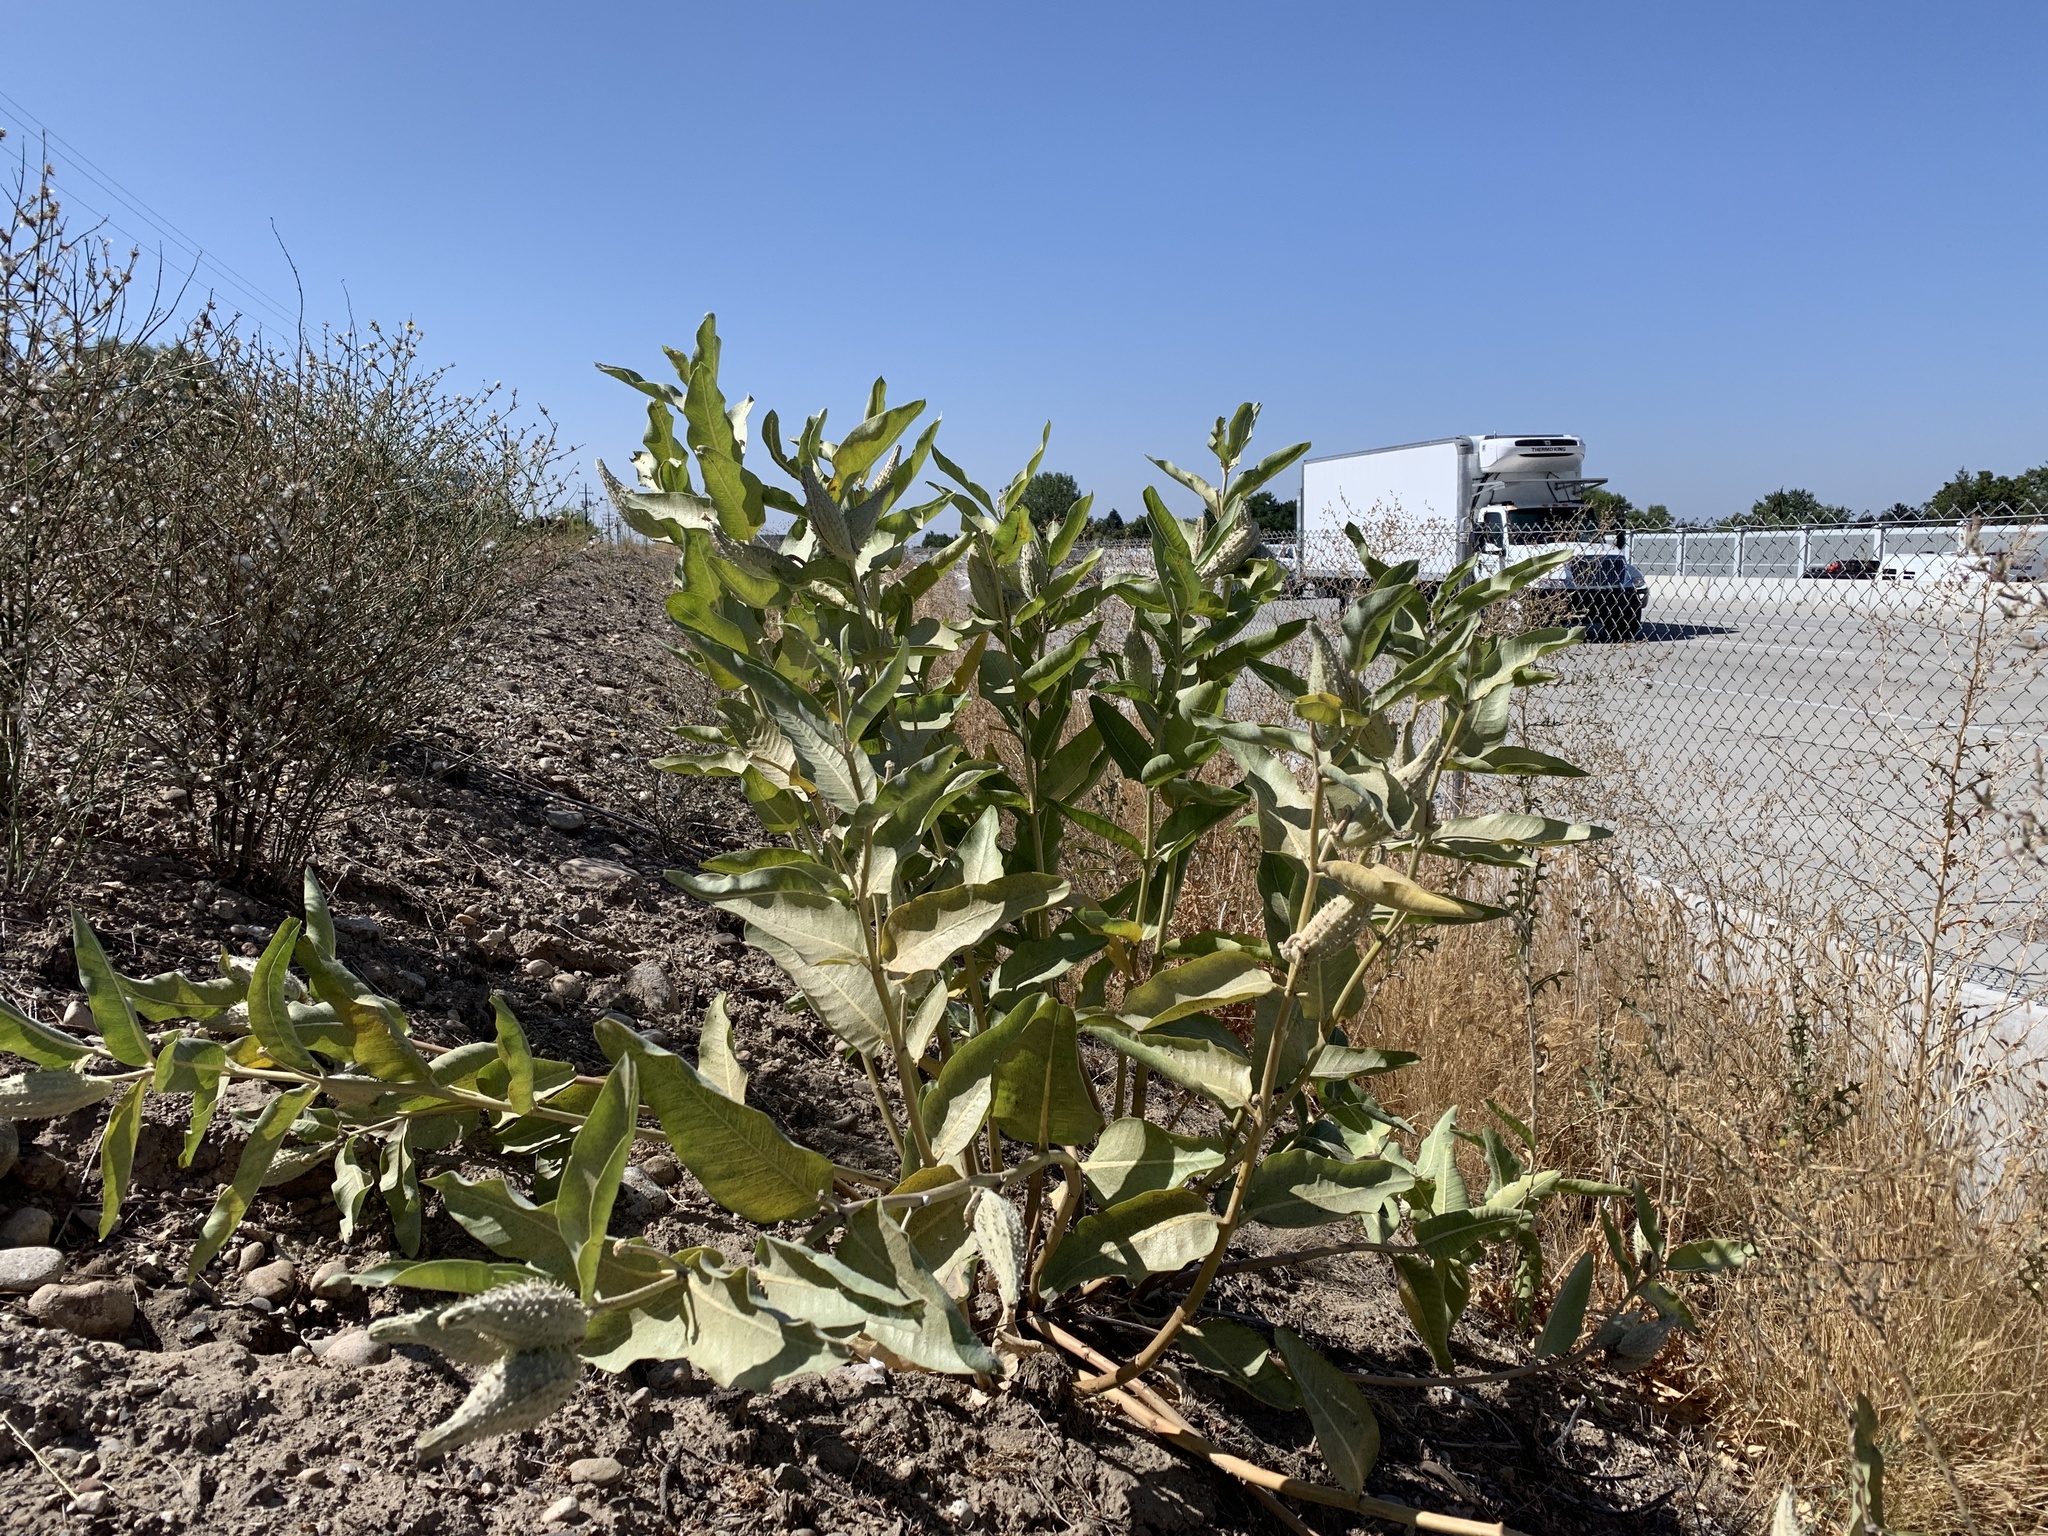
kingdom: Plantae
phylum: Tracheophyta
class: Magnoliopsida
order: Gentianales
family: Apocynaceae
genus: Asclepias
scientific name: Asclepias speciosa
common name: Showy milkweed
